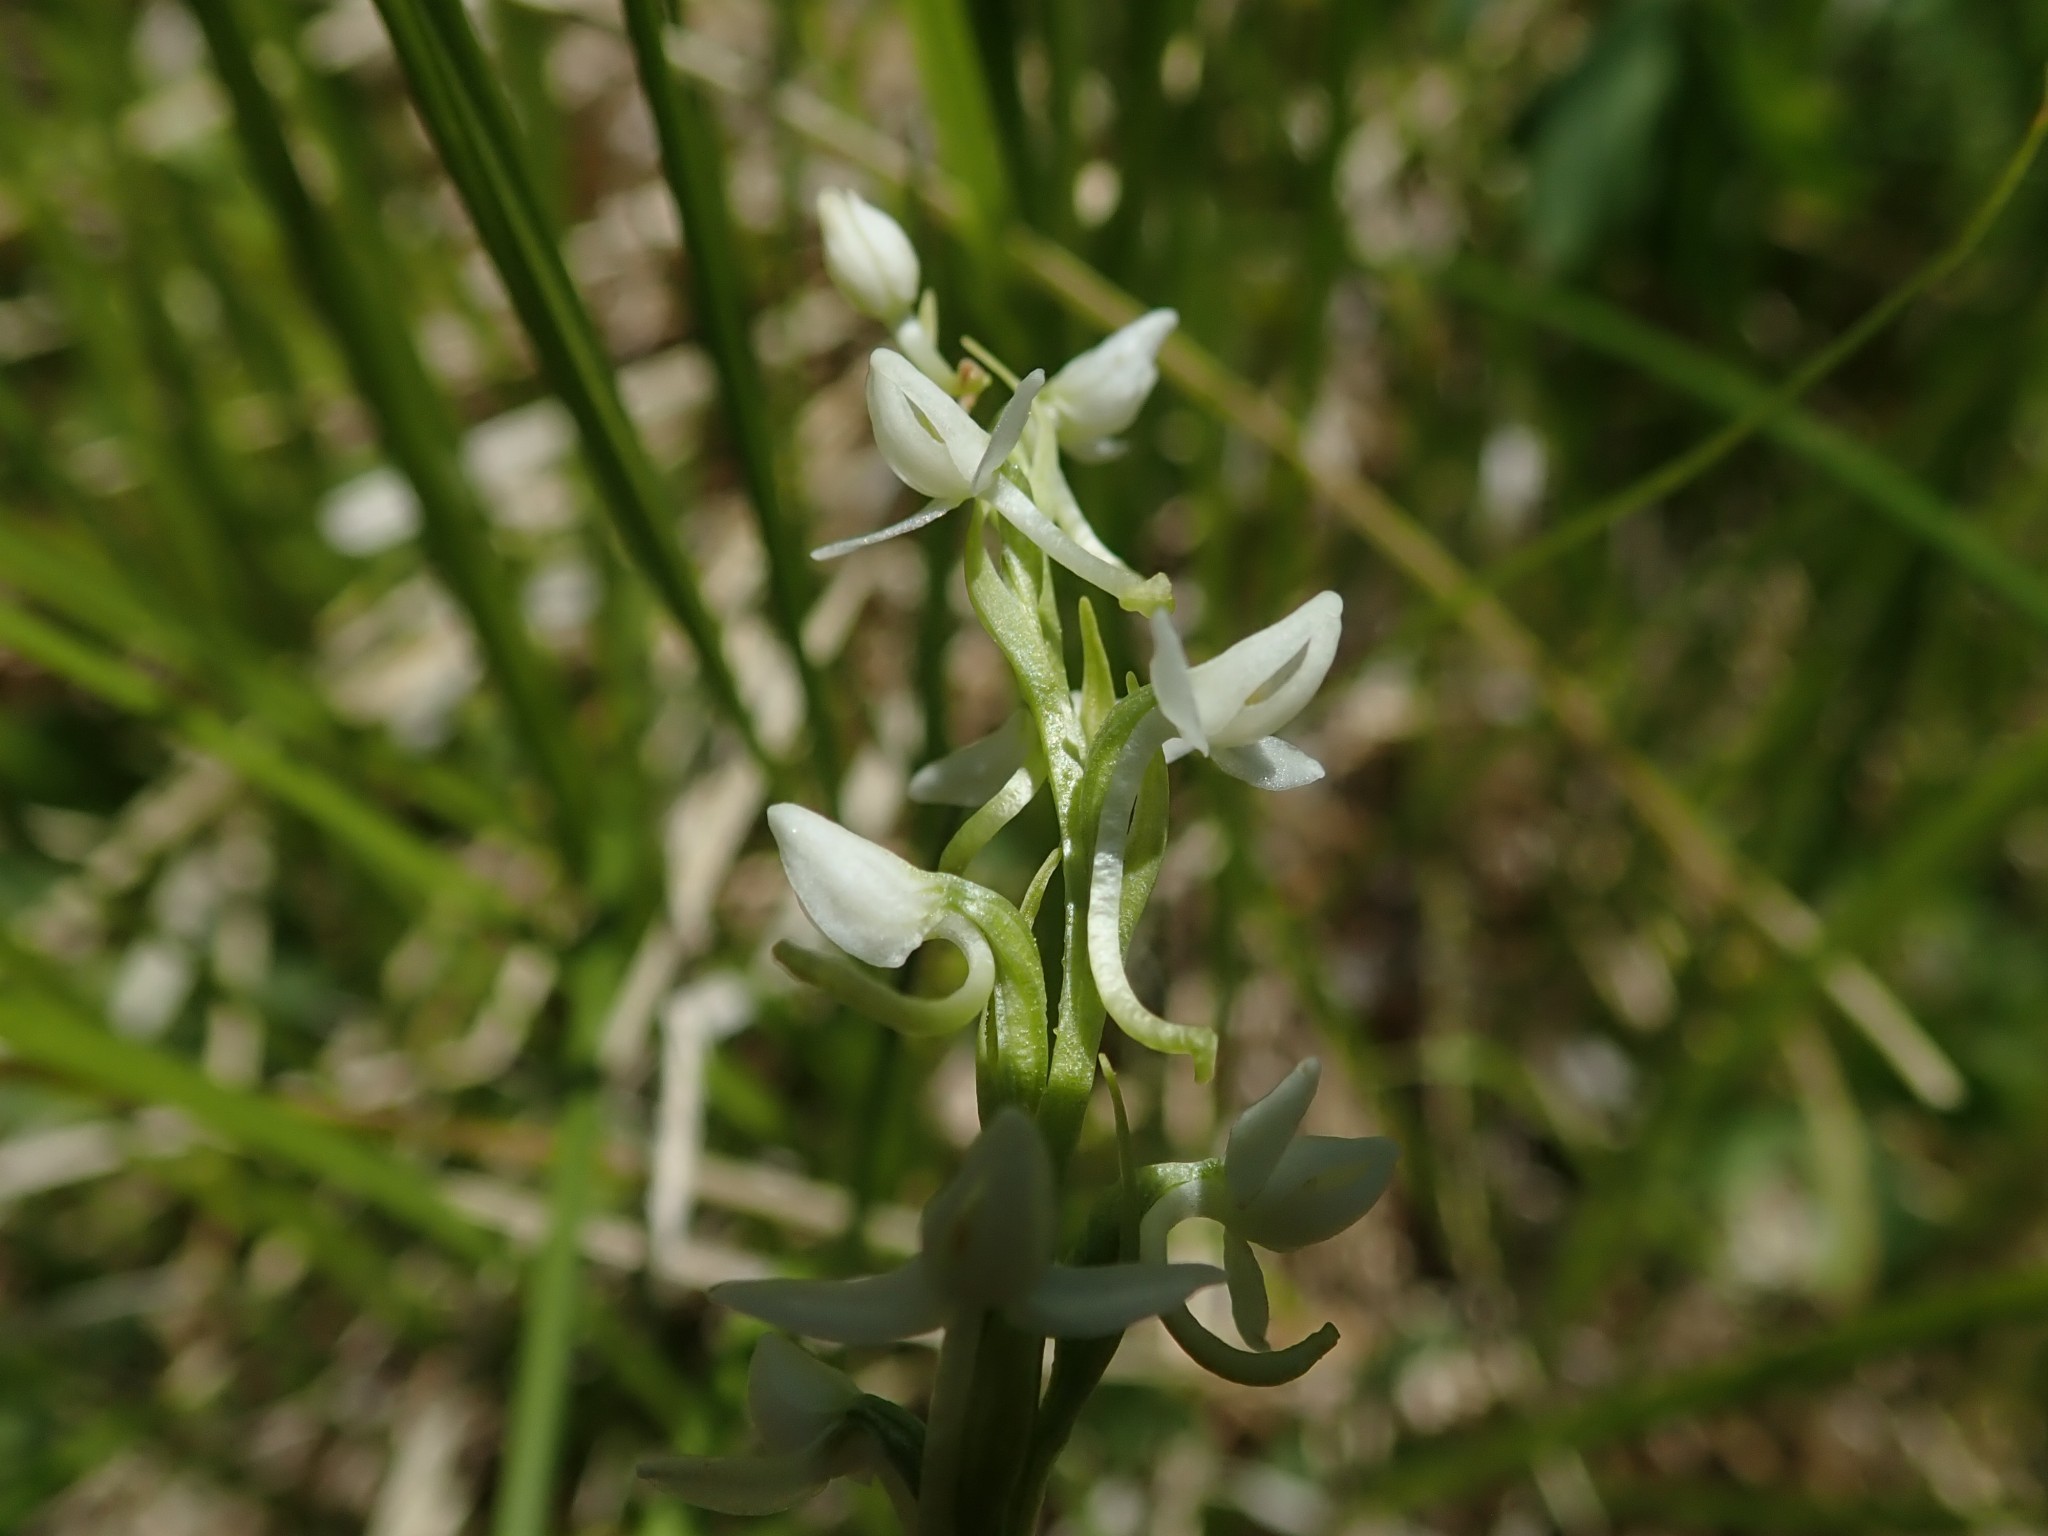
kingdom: Plantae
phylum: Tracheophyta
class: Liliopsida
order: Asparagales
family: Orchidaceae
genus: Platanthera
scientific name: Platanthera dilatata
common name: Bog candles
